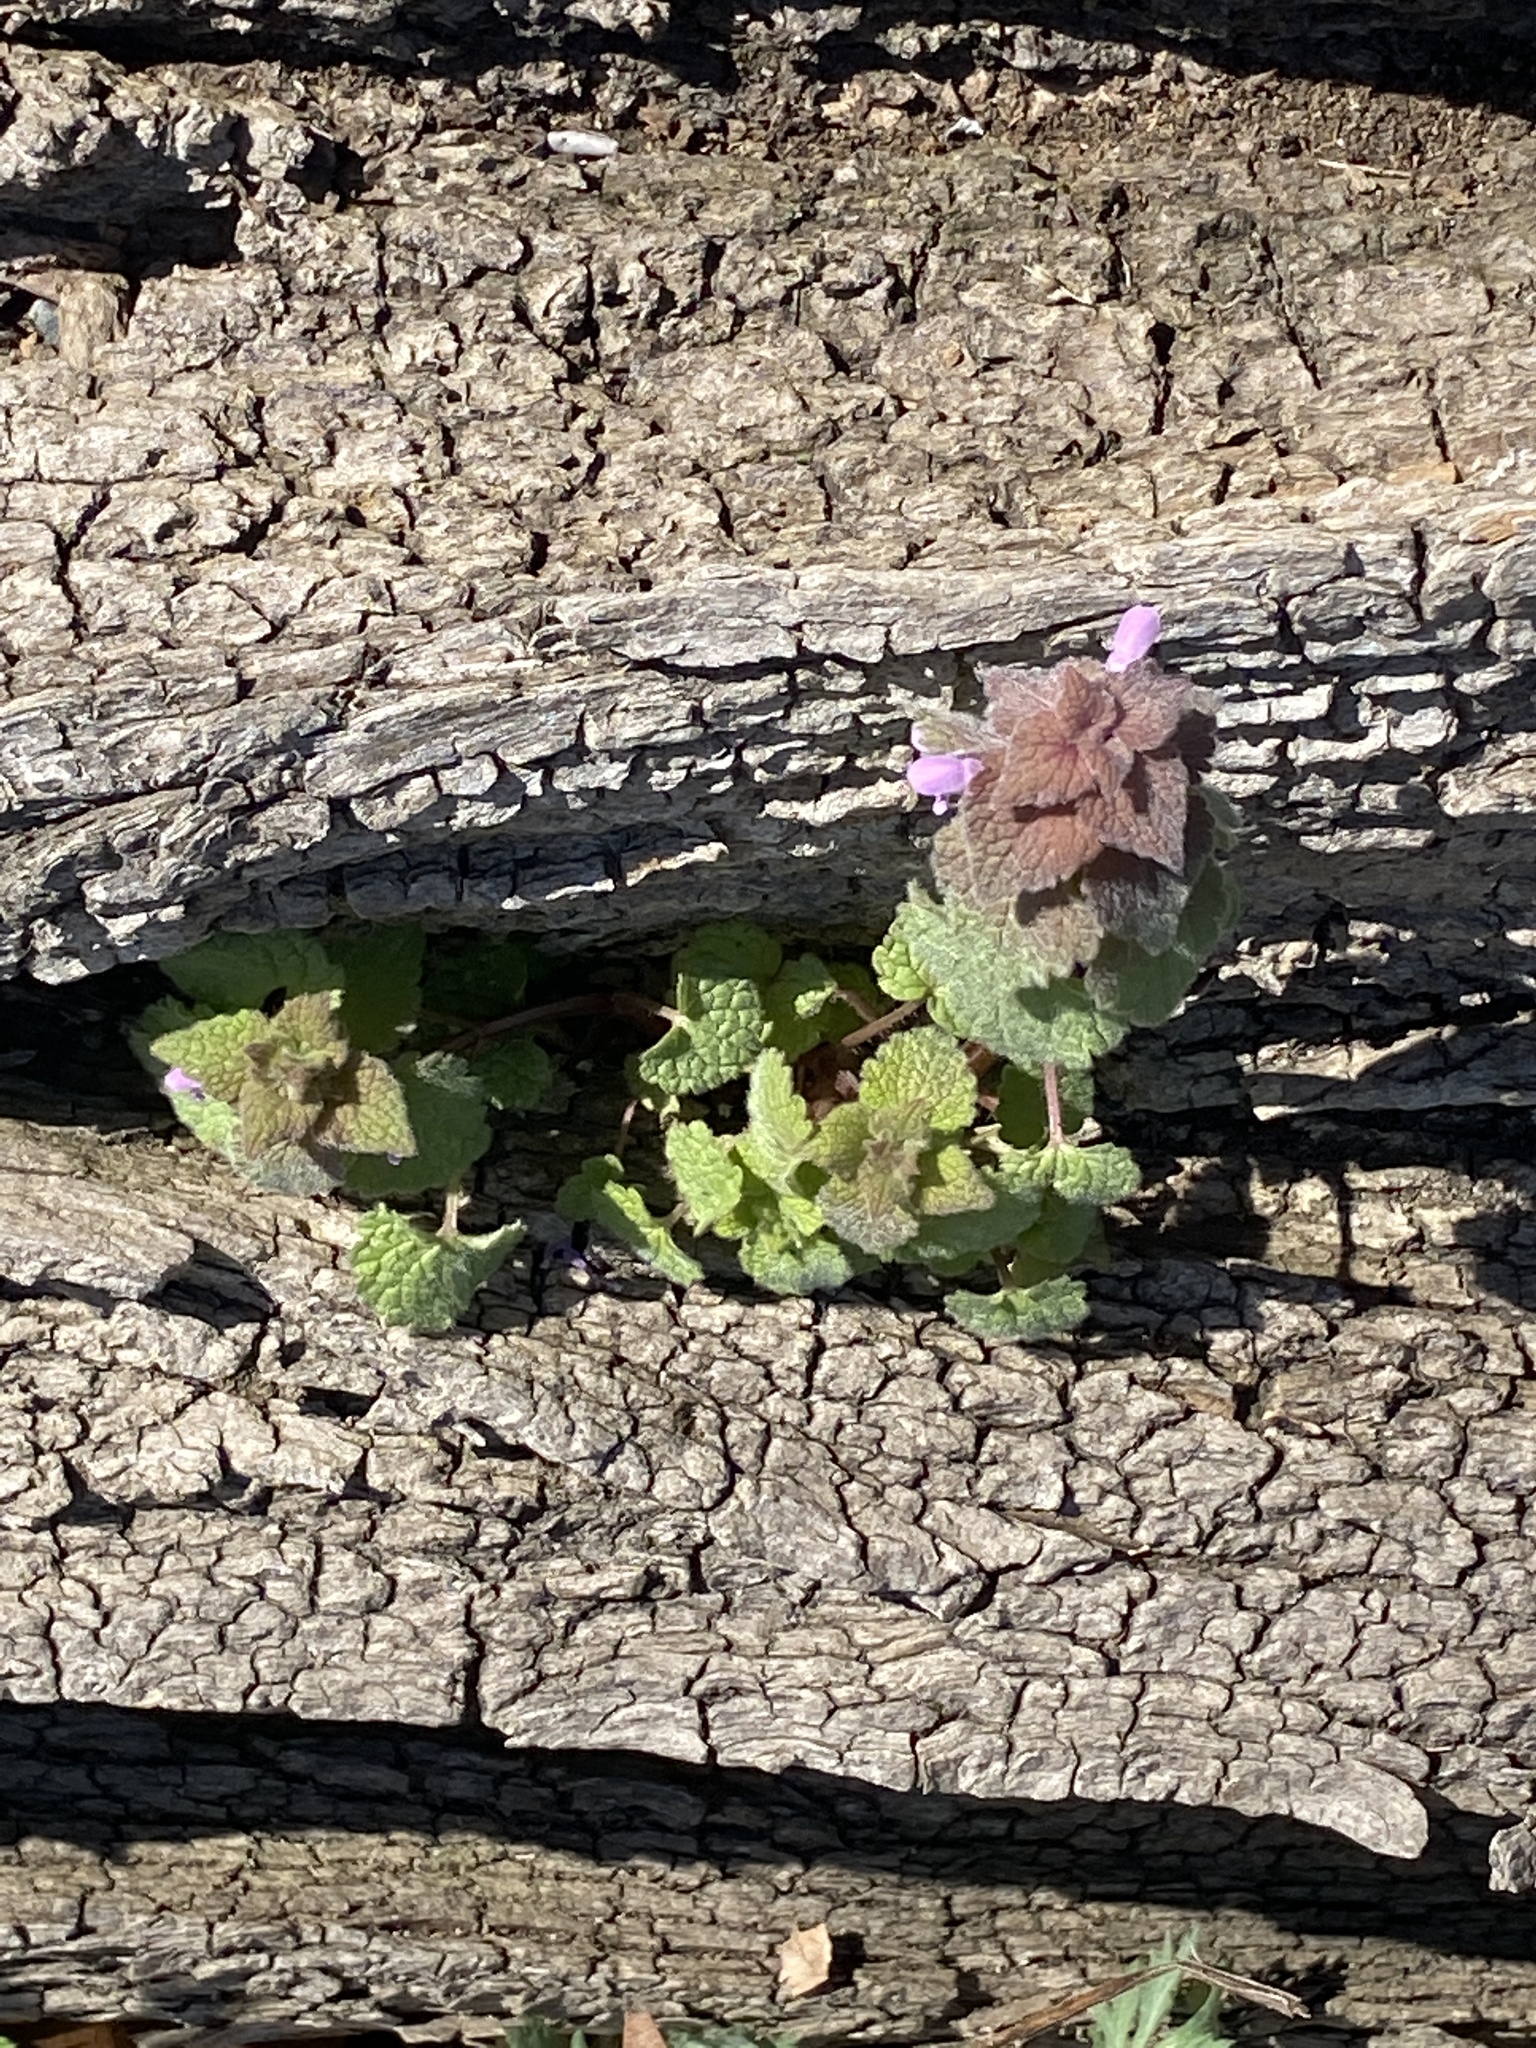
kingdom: Plantae
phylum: Tracheophyta
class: Magnoliopsida
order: Lamiales
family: Lamiaceae
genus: Lamium
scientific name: Lamium purpureum
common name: Red dead-nettle
